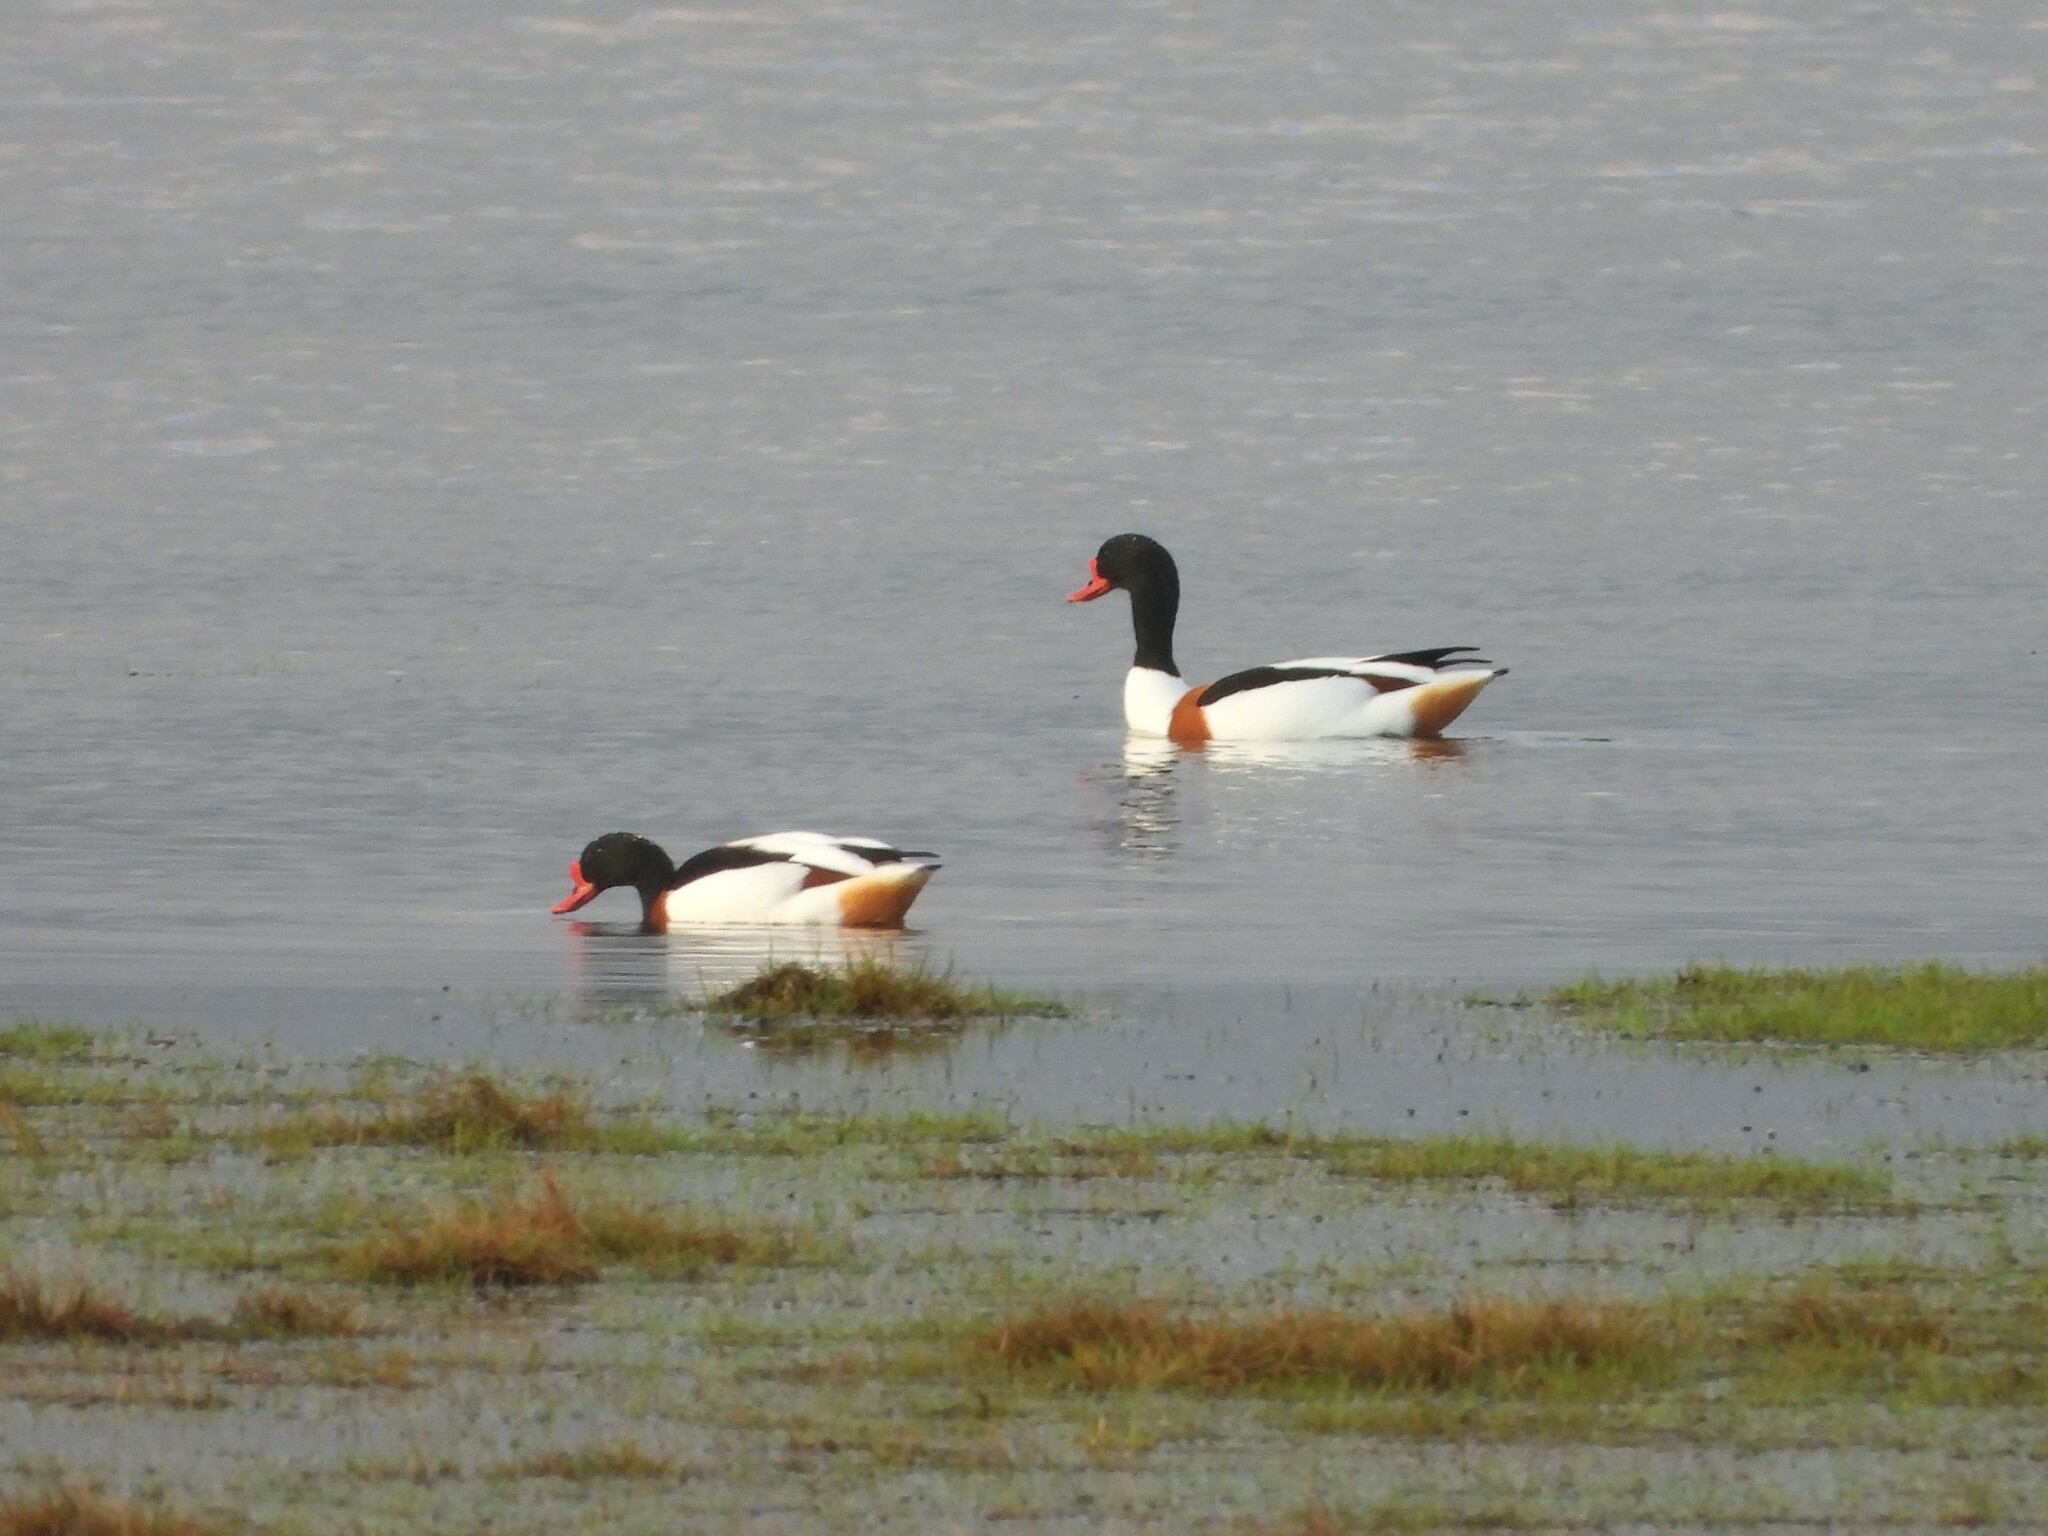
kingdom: Animalia
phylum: Chordata
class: Aves
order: Anseriformes
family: Anatidae
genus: Tadorna
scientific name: Tadorna tadorna
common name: Common shelduck
